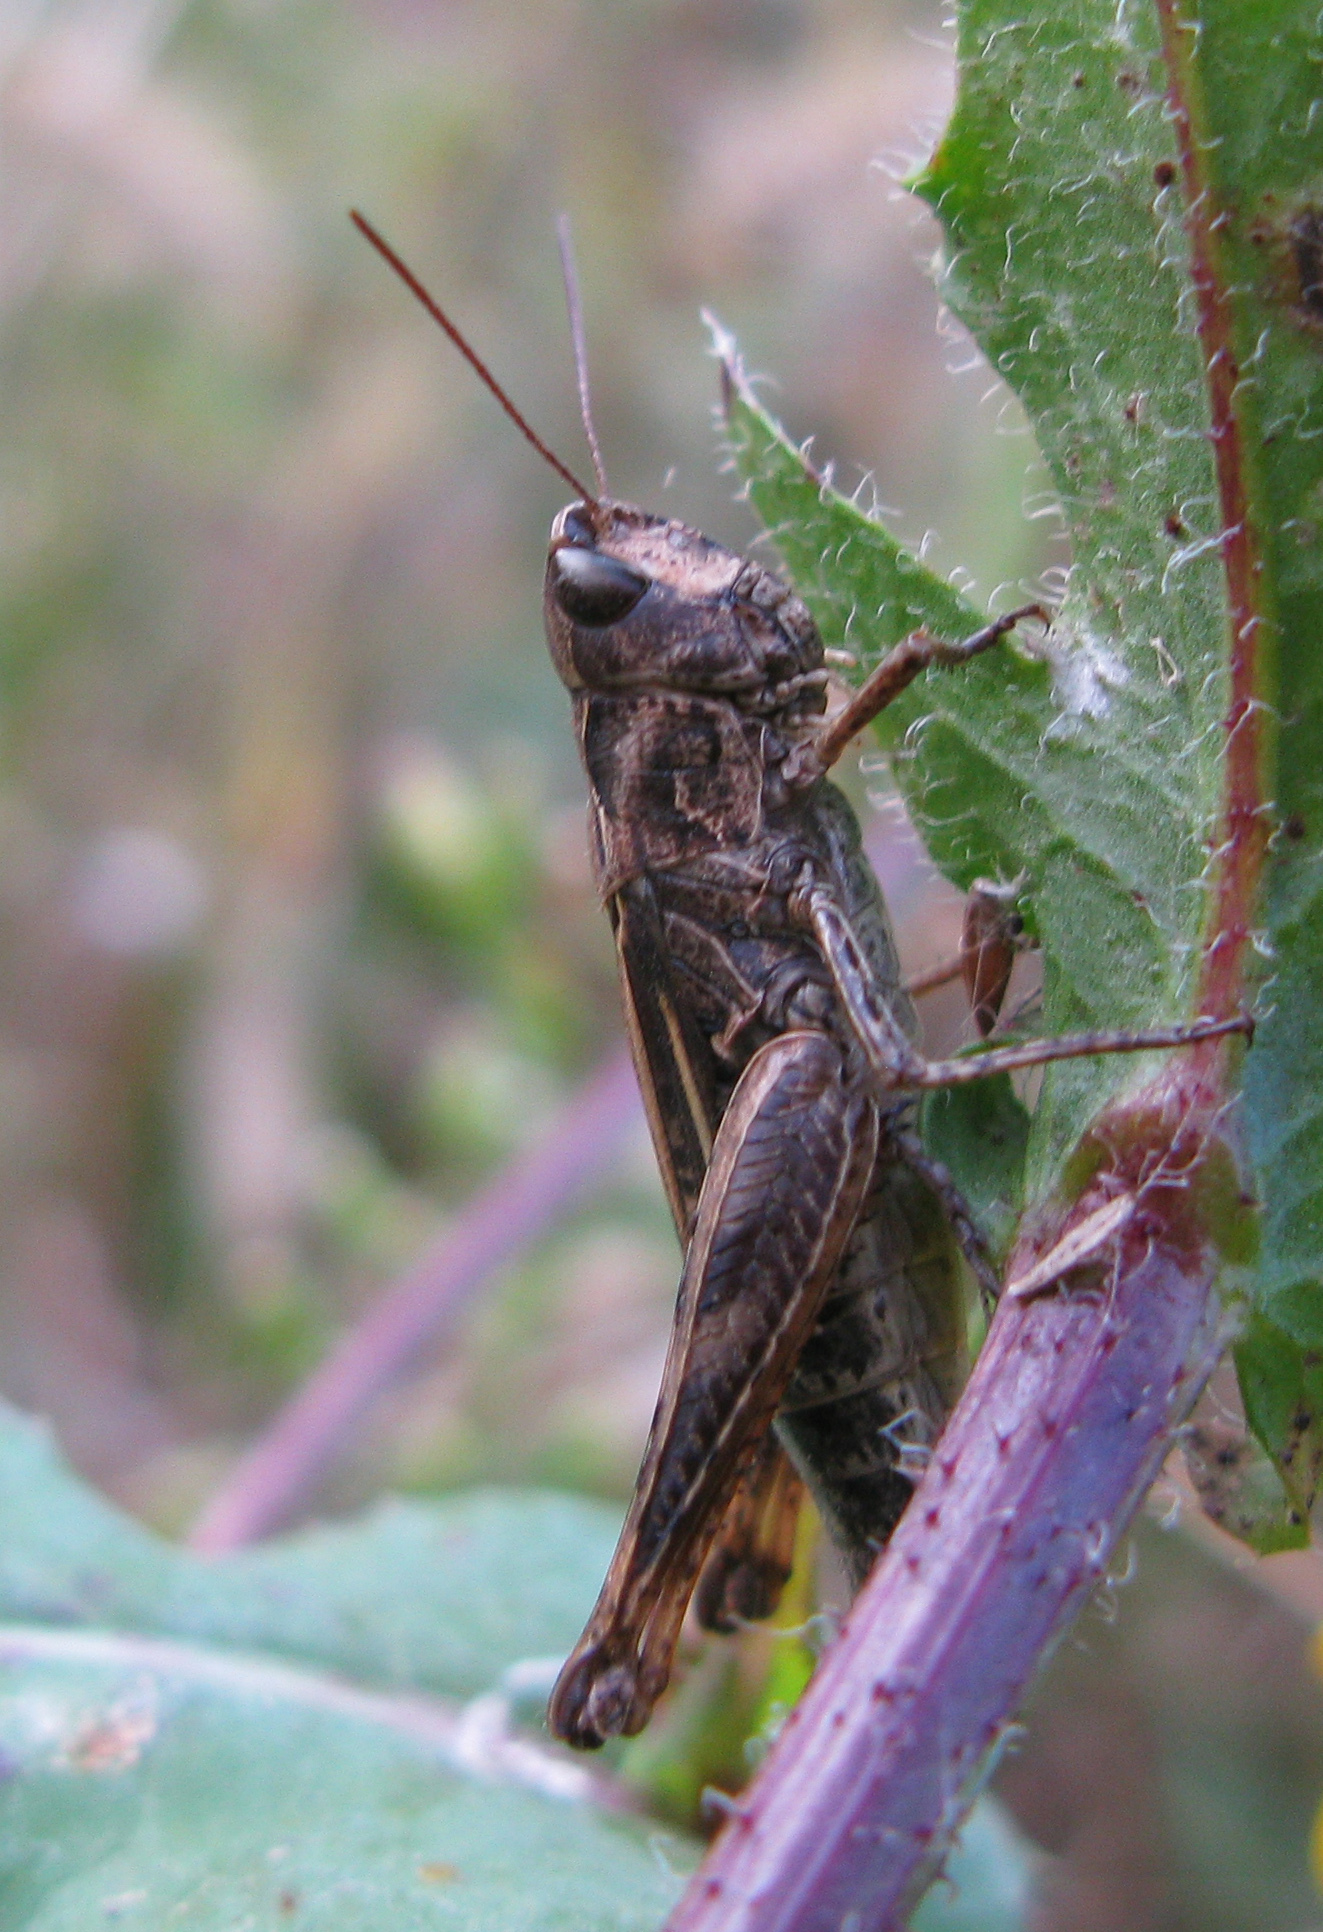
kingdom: Animalia
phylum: Arthropoda
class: Insecta
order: Orthoptera
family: Acrididae
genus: Chorthippus
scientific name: Chorthippus macrocerus
